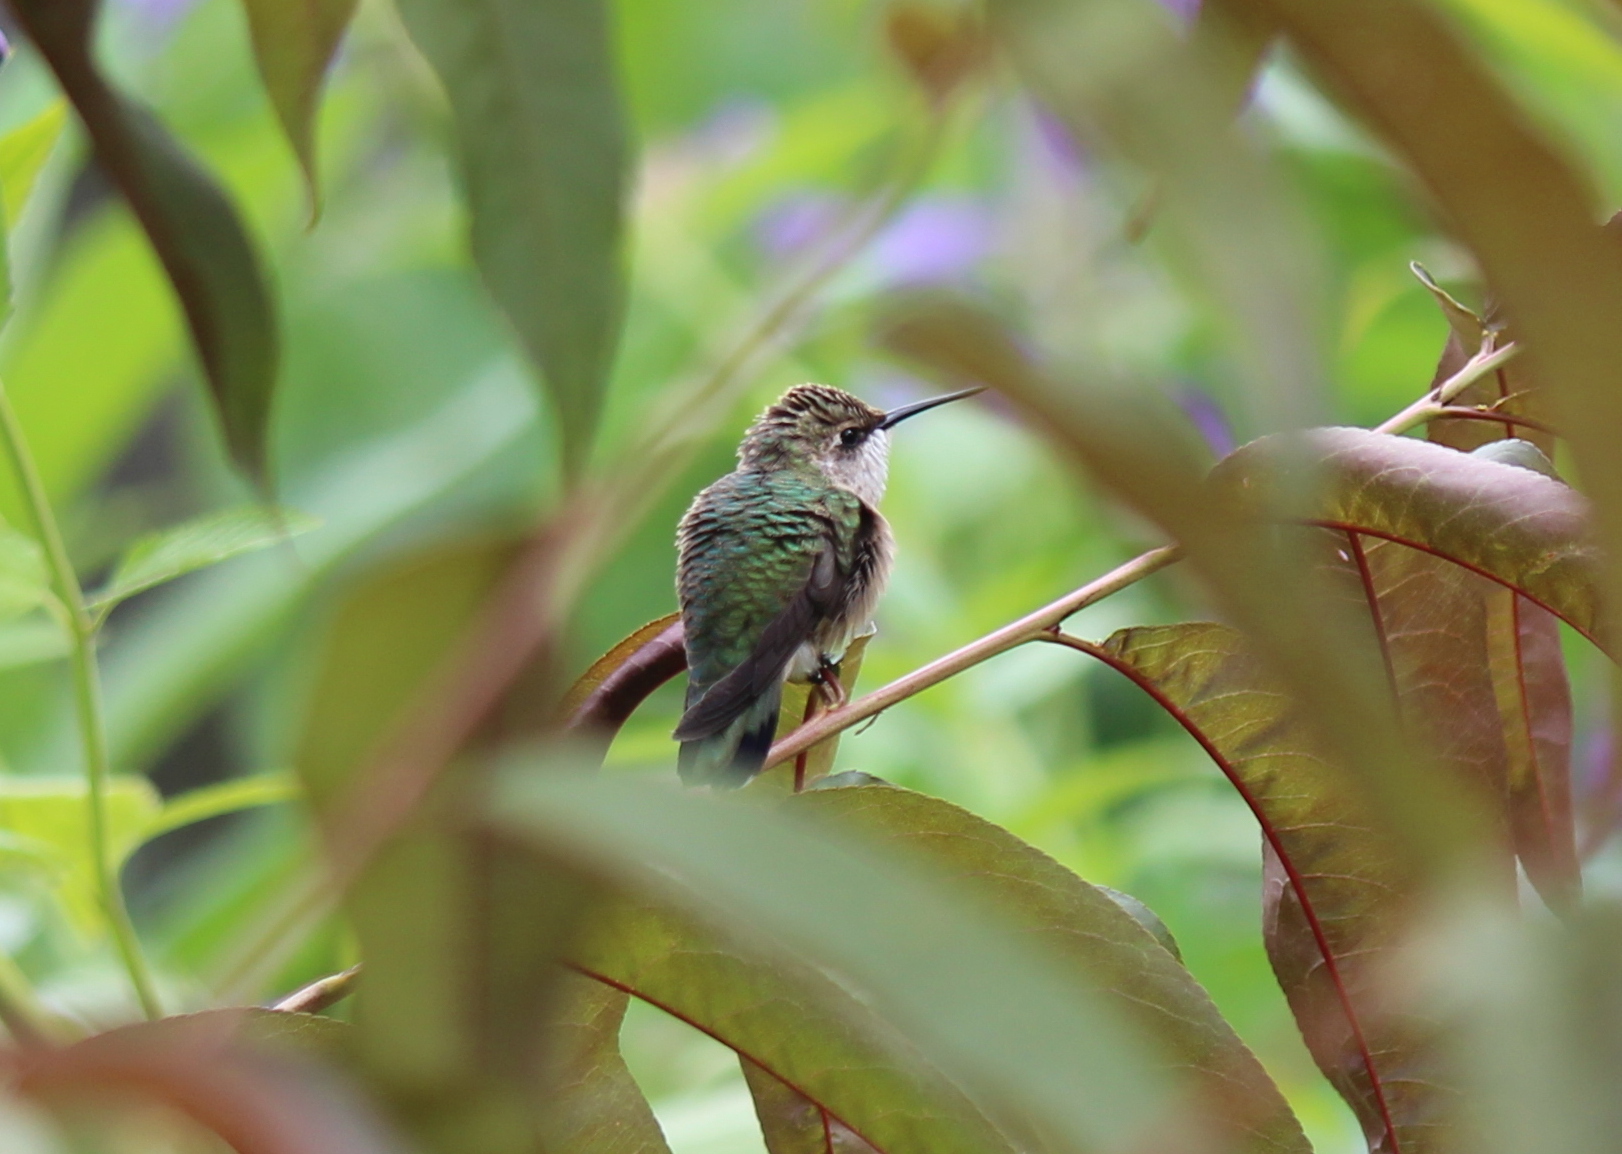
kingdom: Animalia
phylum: Chordata
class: Aves
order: Apodiformes
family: Trochilidae
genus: Archilochus
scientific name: Archilochus colubris
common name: Ruby-throated hummingbird
